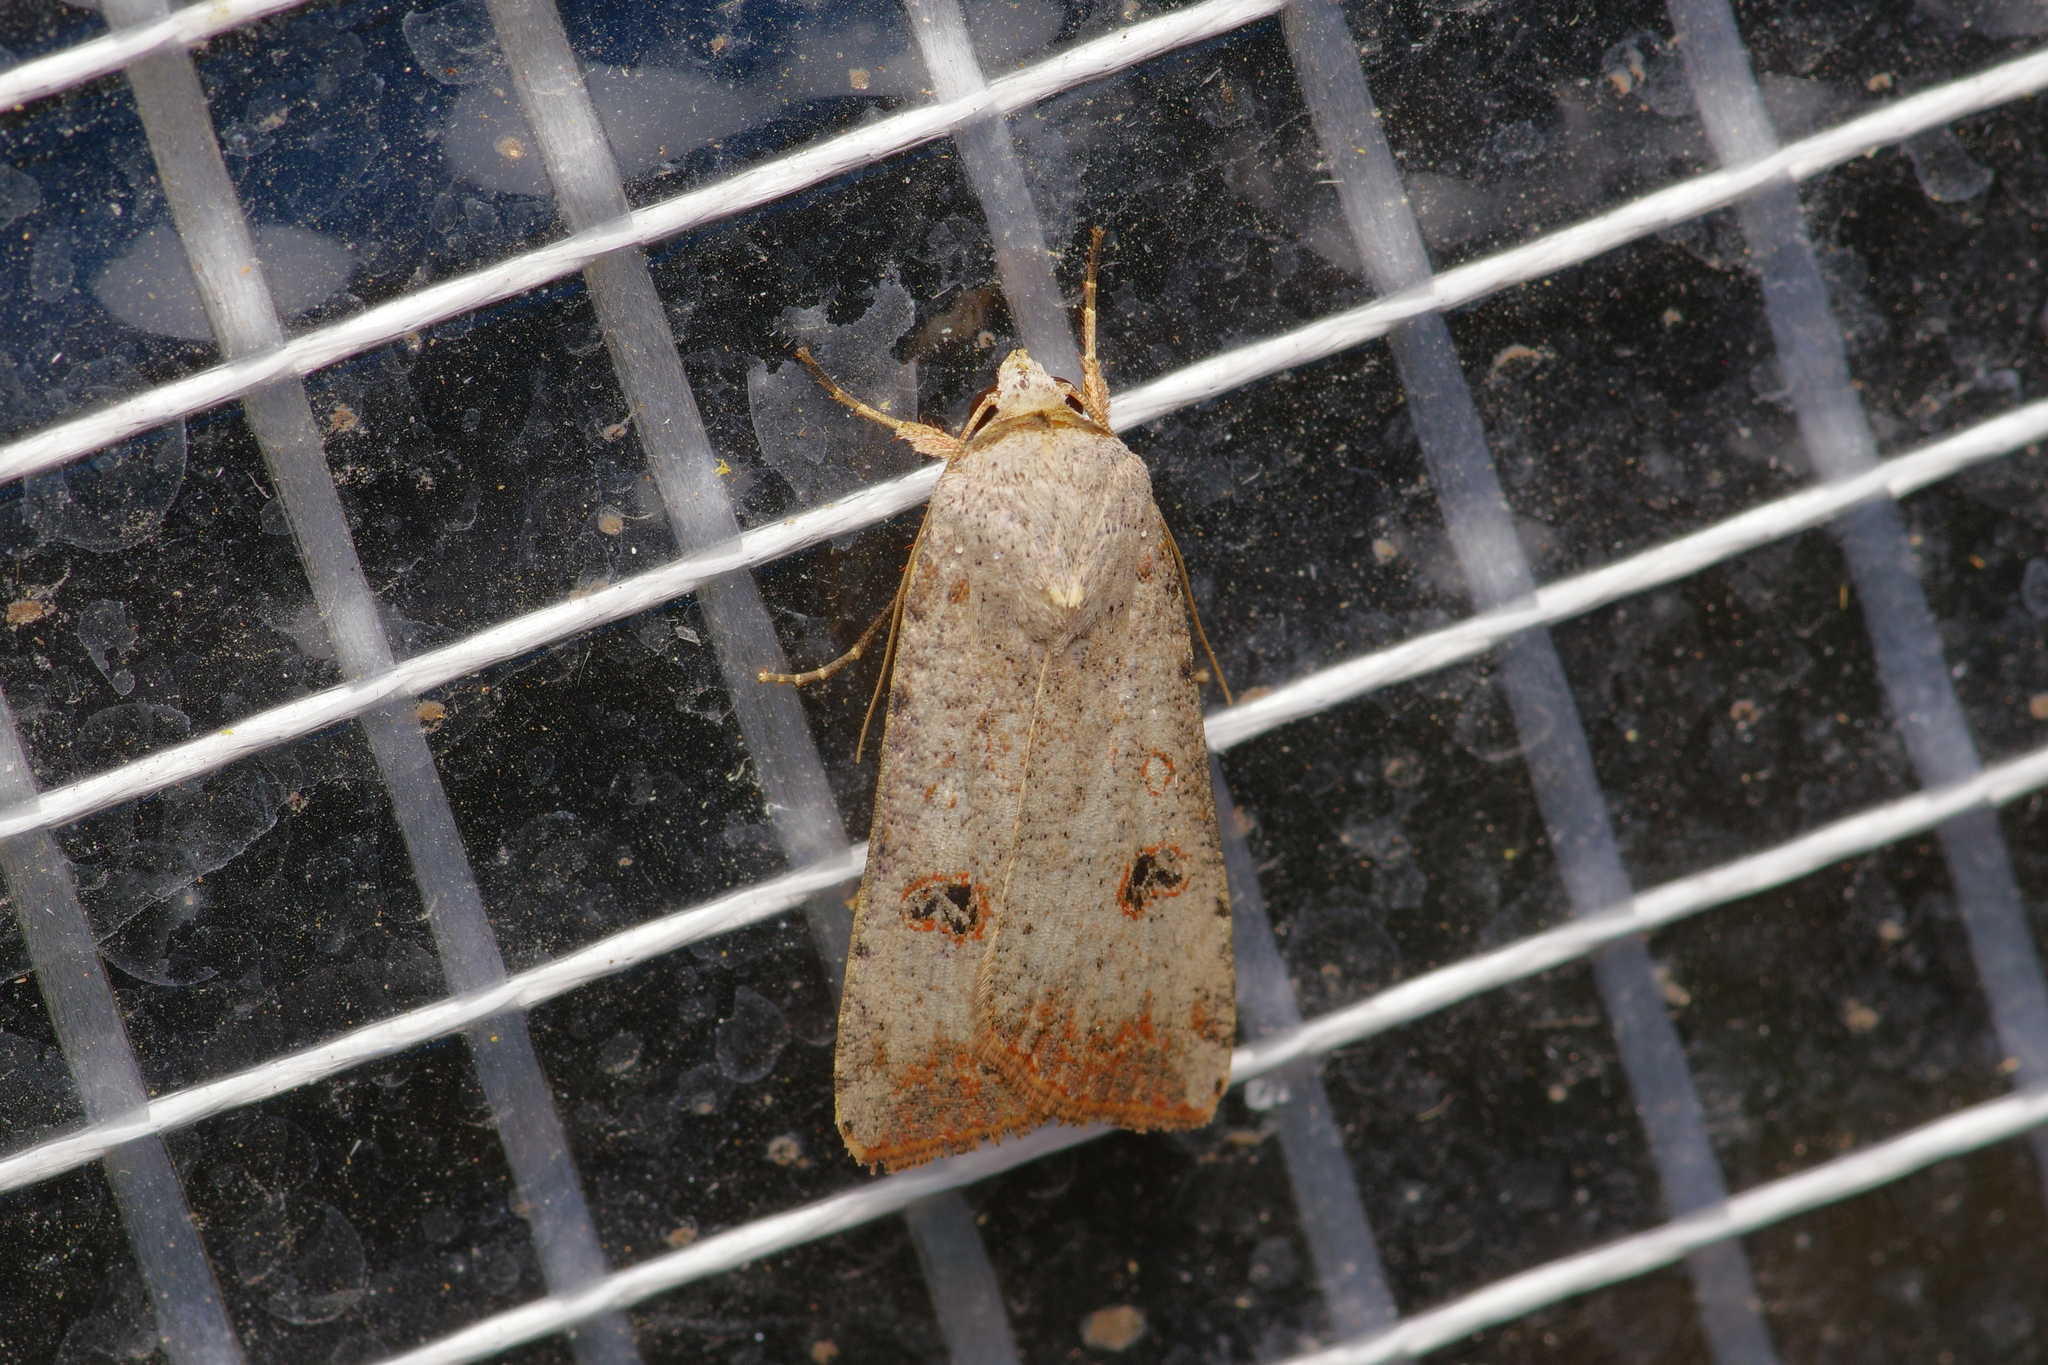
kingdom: Animalia
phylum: Arthropoda
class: Insecta
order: Lepidoptera
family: Noctuidae
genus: Anicla
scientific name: Anicla infecta
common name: Green cutworm
